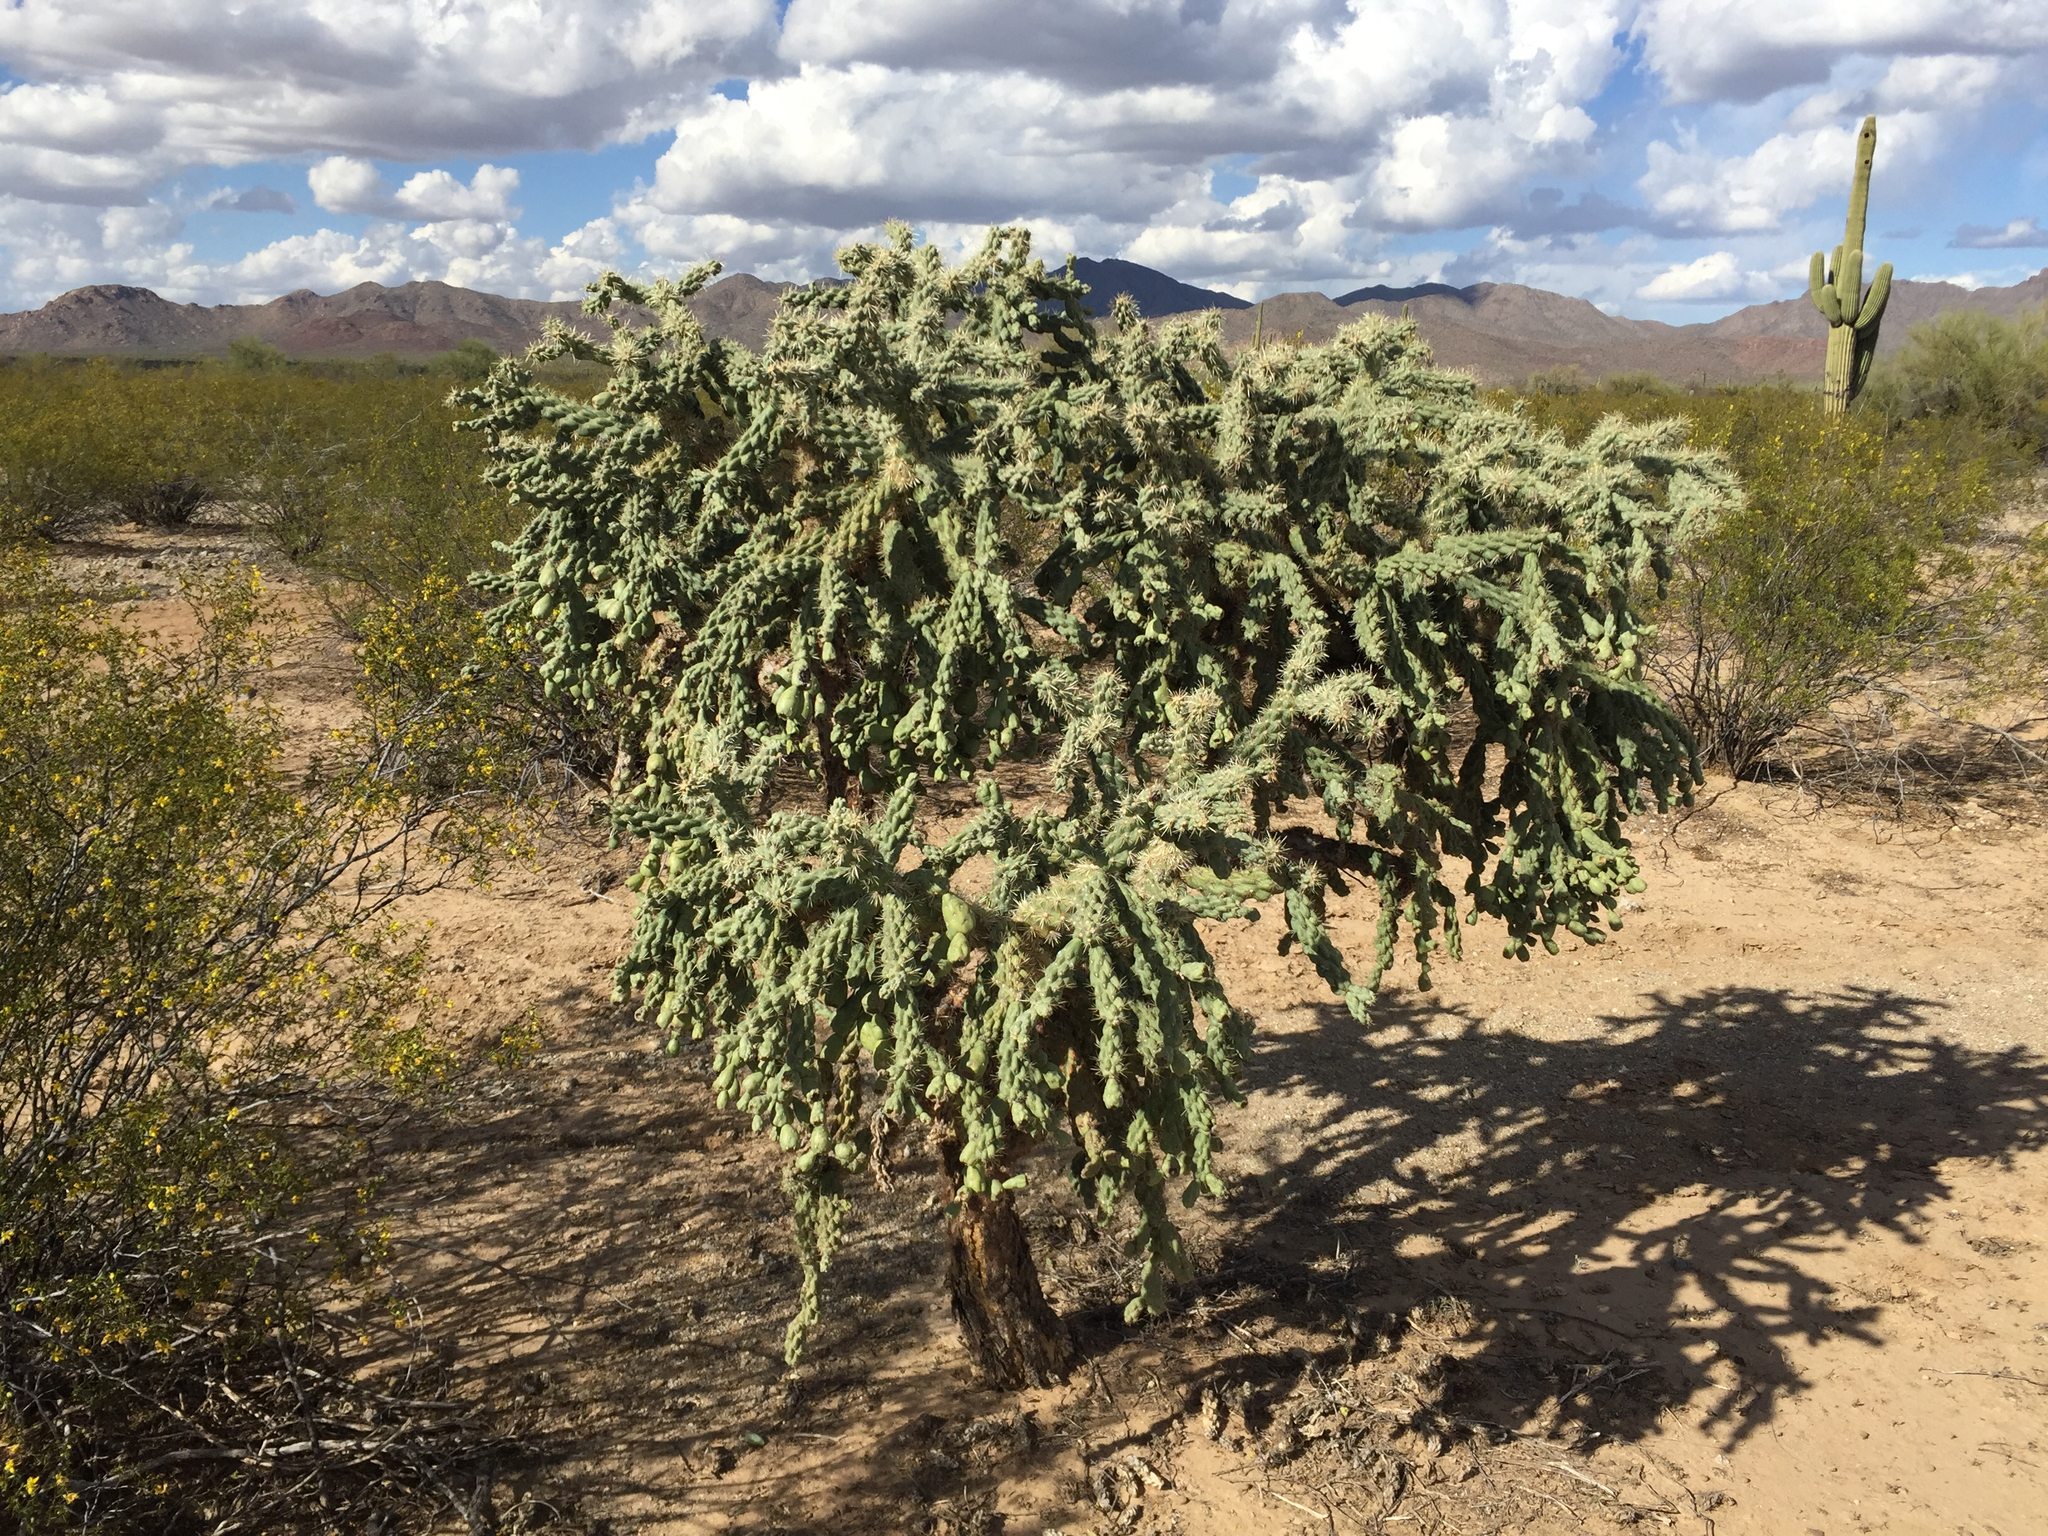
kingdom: Plantae
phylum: Tracheophyta
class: Magnoliopsida
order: Caryophyllales
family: Cactaceae
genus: Cylindropuntia
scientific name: Cylindropuntia fulgida
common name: Jumping cholla
